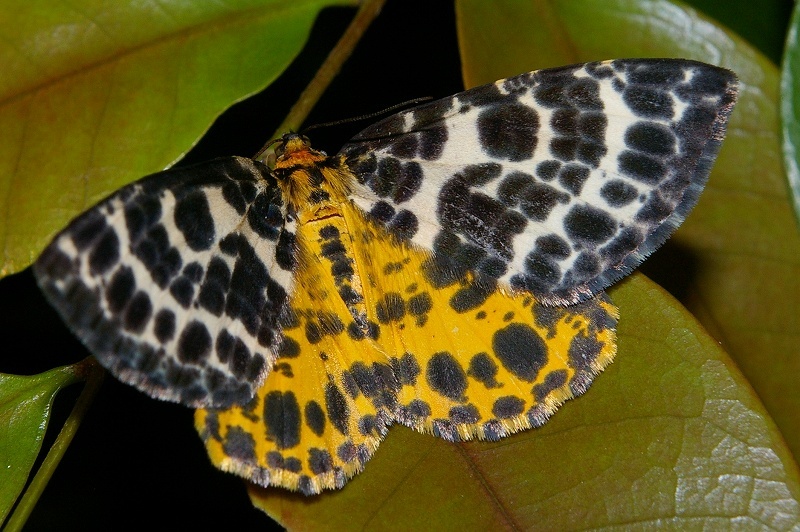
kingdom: Animalia
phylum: Arthropoda
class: Insecta
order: Lepidoptera
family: Geometridae
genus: Arichanna
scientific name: Arichanna melanaria
